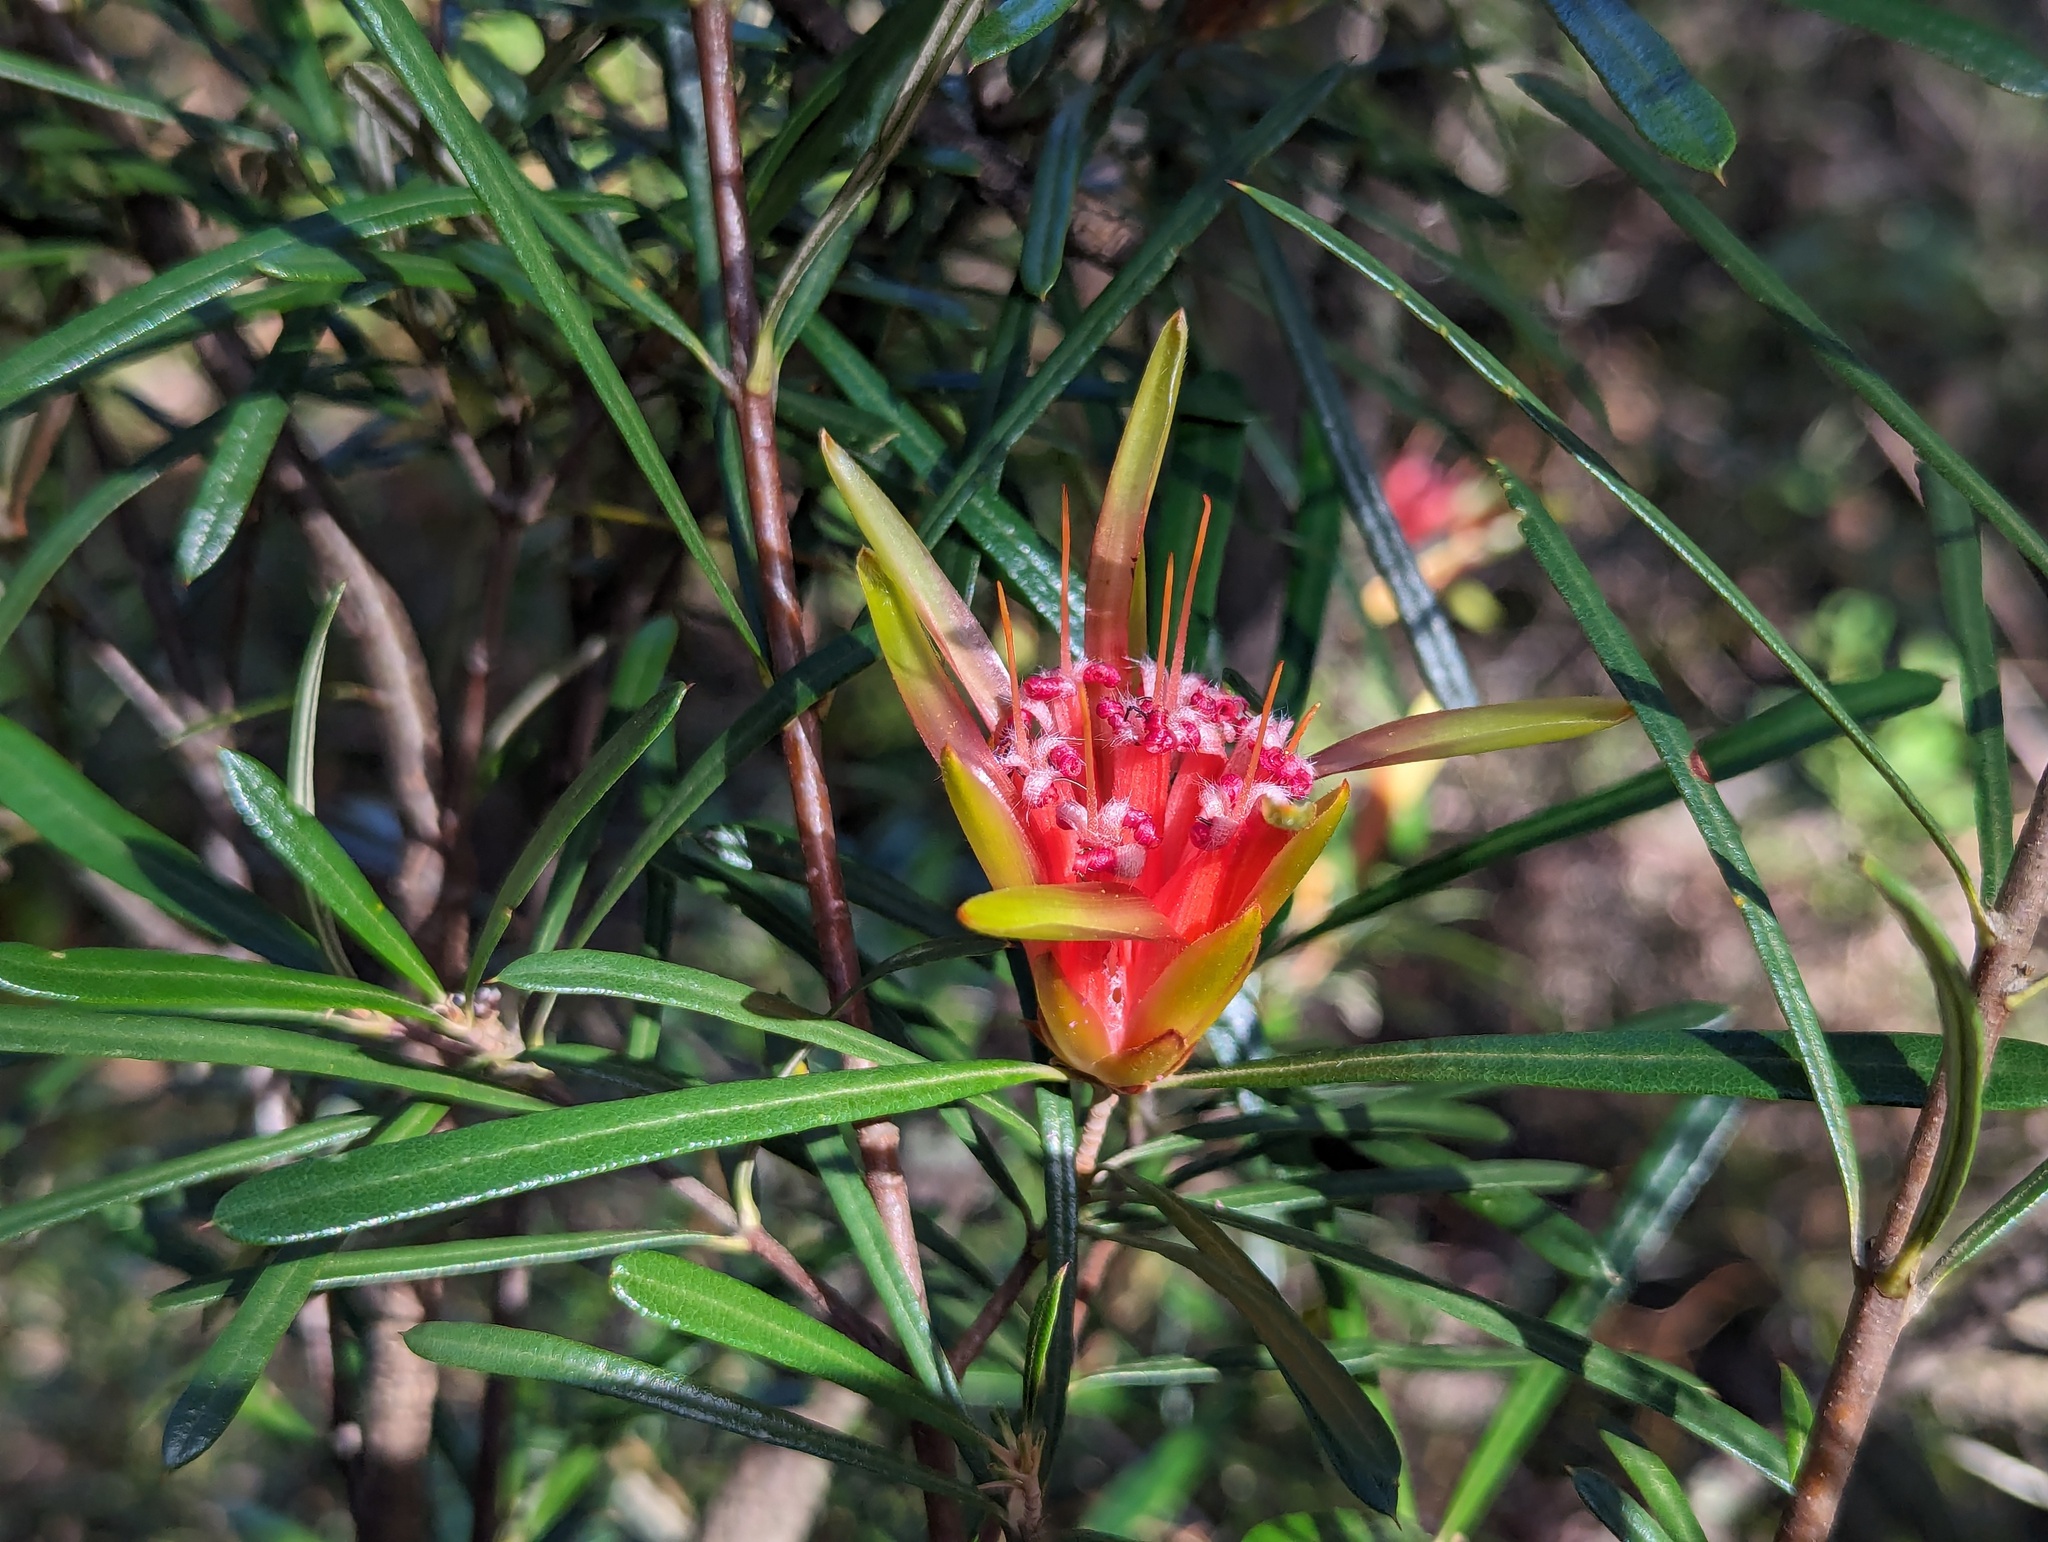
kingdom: Plantae
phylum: Tracheophyta
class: Magnoliopsida
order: Proteales
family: Proteaceae
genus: Lambertia
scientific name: Lambertia formosa
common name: Mountain-devil
